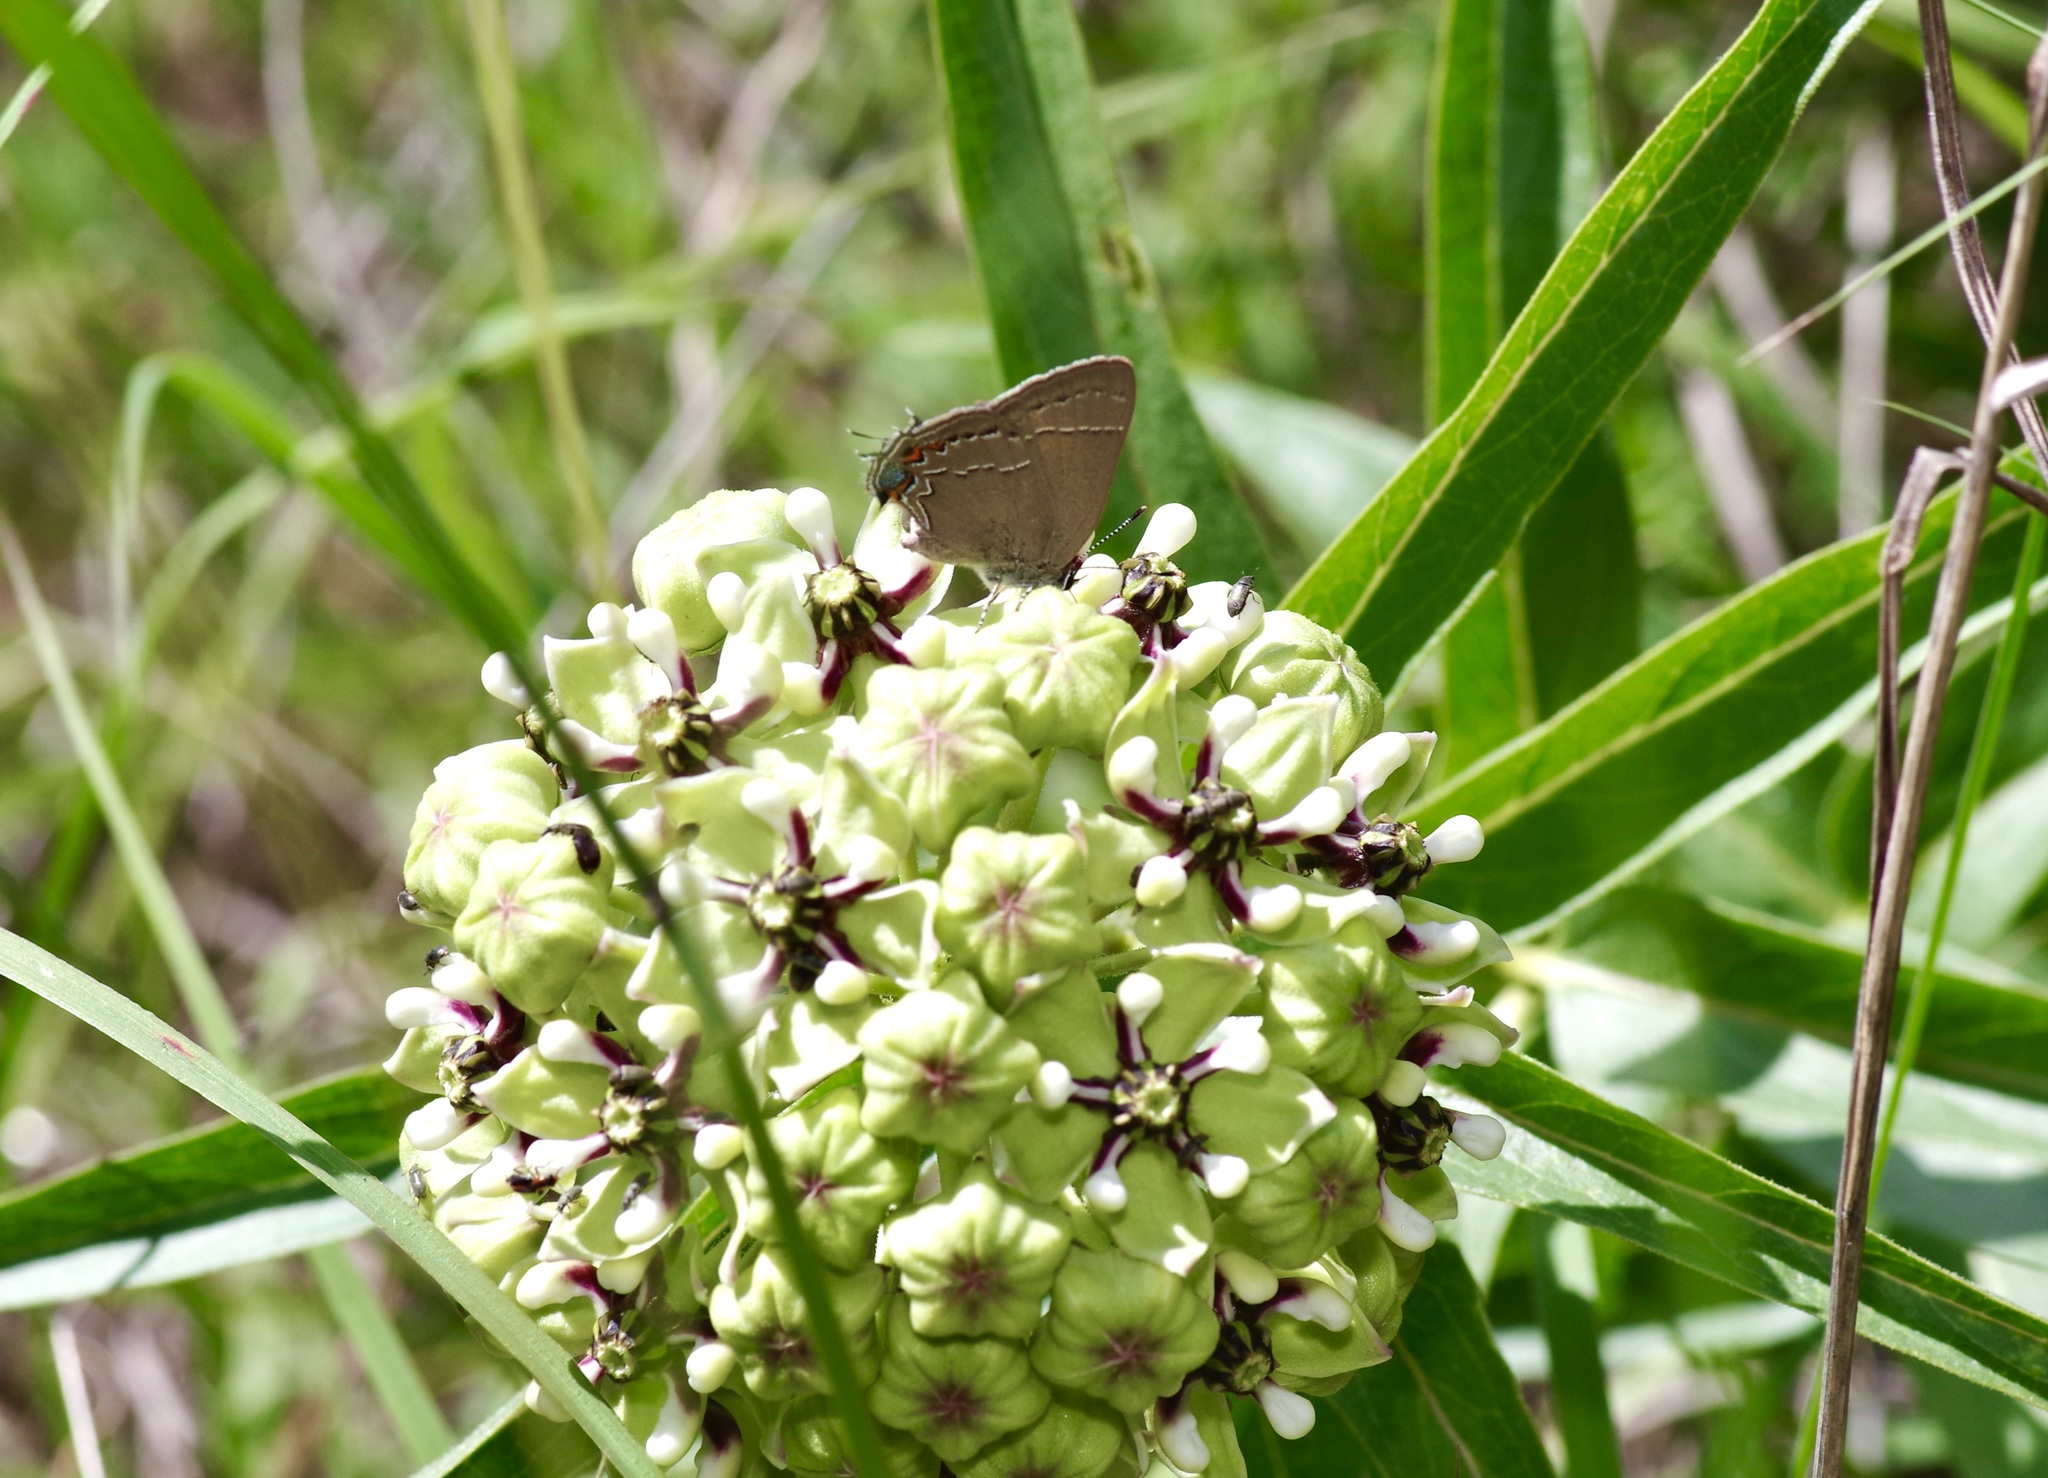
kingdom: Animalia
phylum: Arthropoda
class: Insecta
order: Lepidoptera
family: Lycaenidae
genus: Fixsenia
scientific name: Fixsenia favonius
